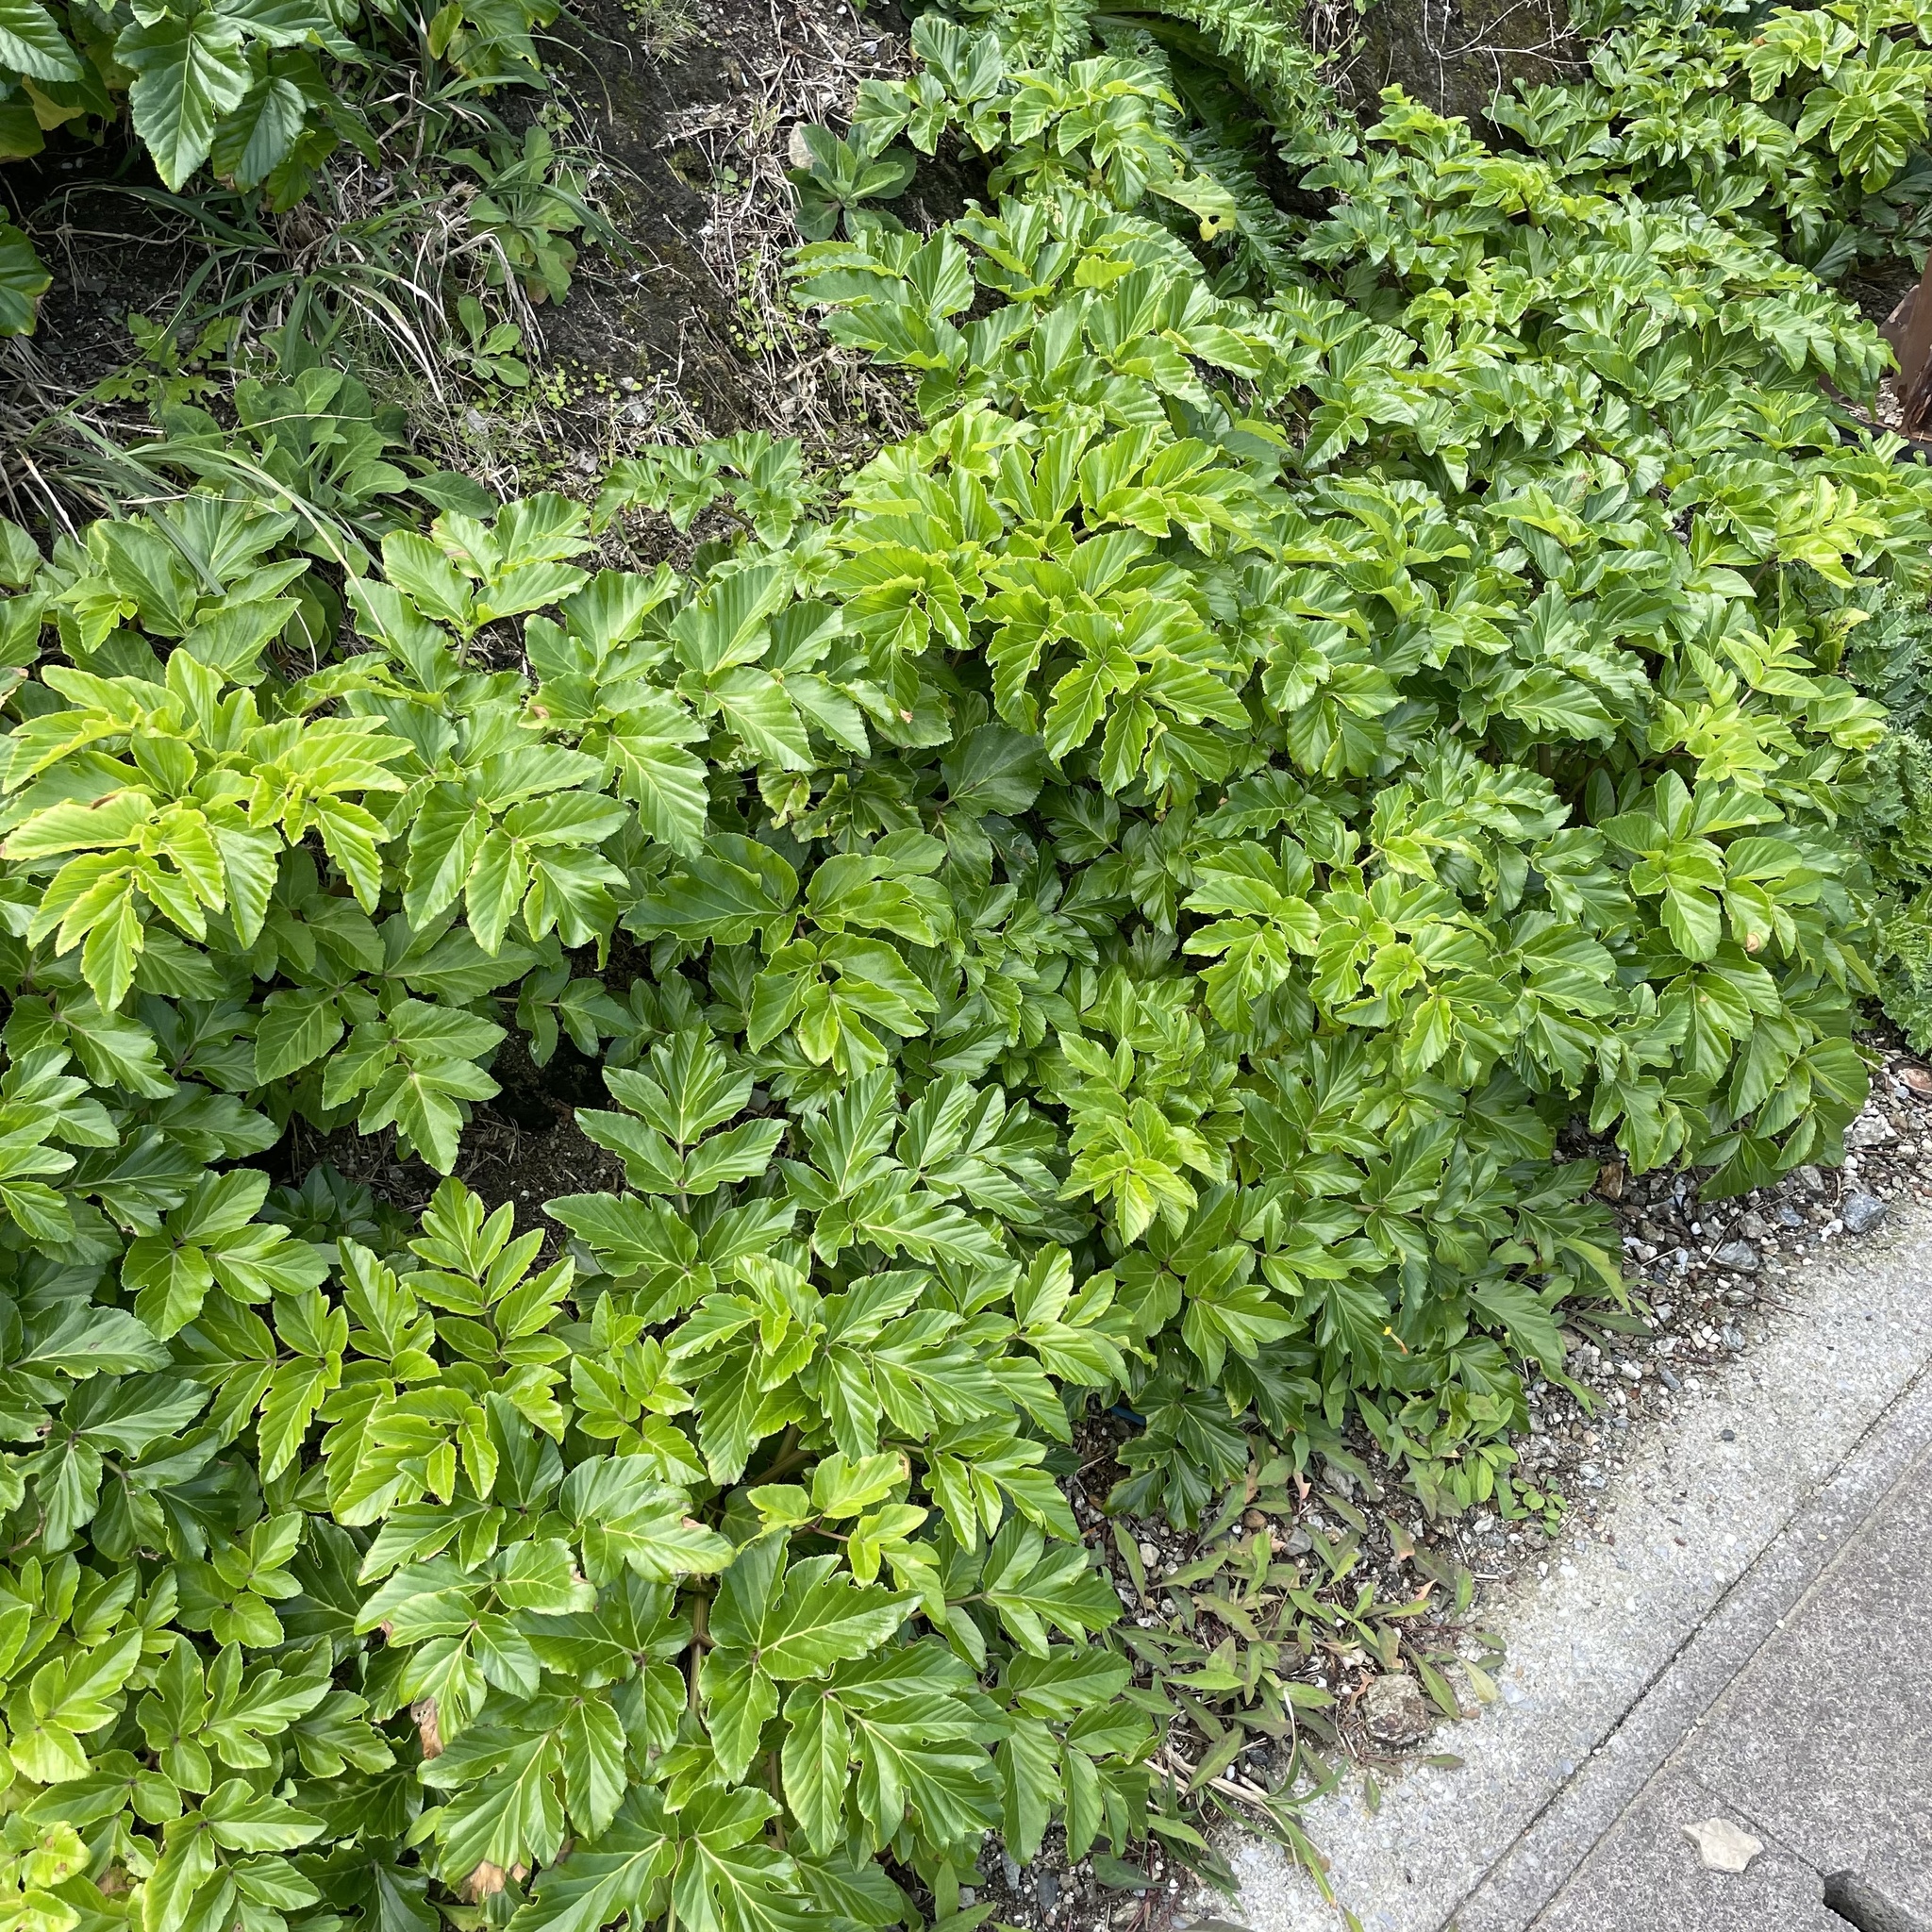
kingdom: Plantae
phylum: Tracheophyta
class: Magnoliopsida
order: Apiales
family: Apiaceae
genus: Angelica
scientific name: Angelica japonica
